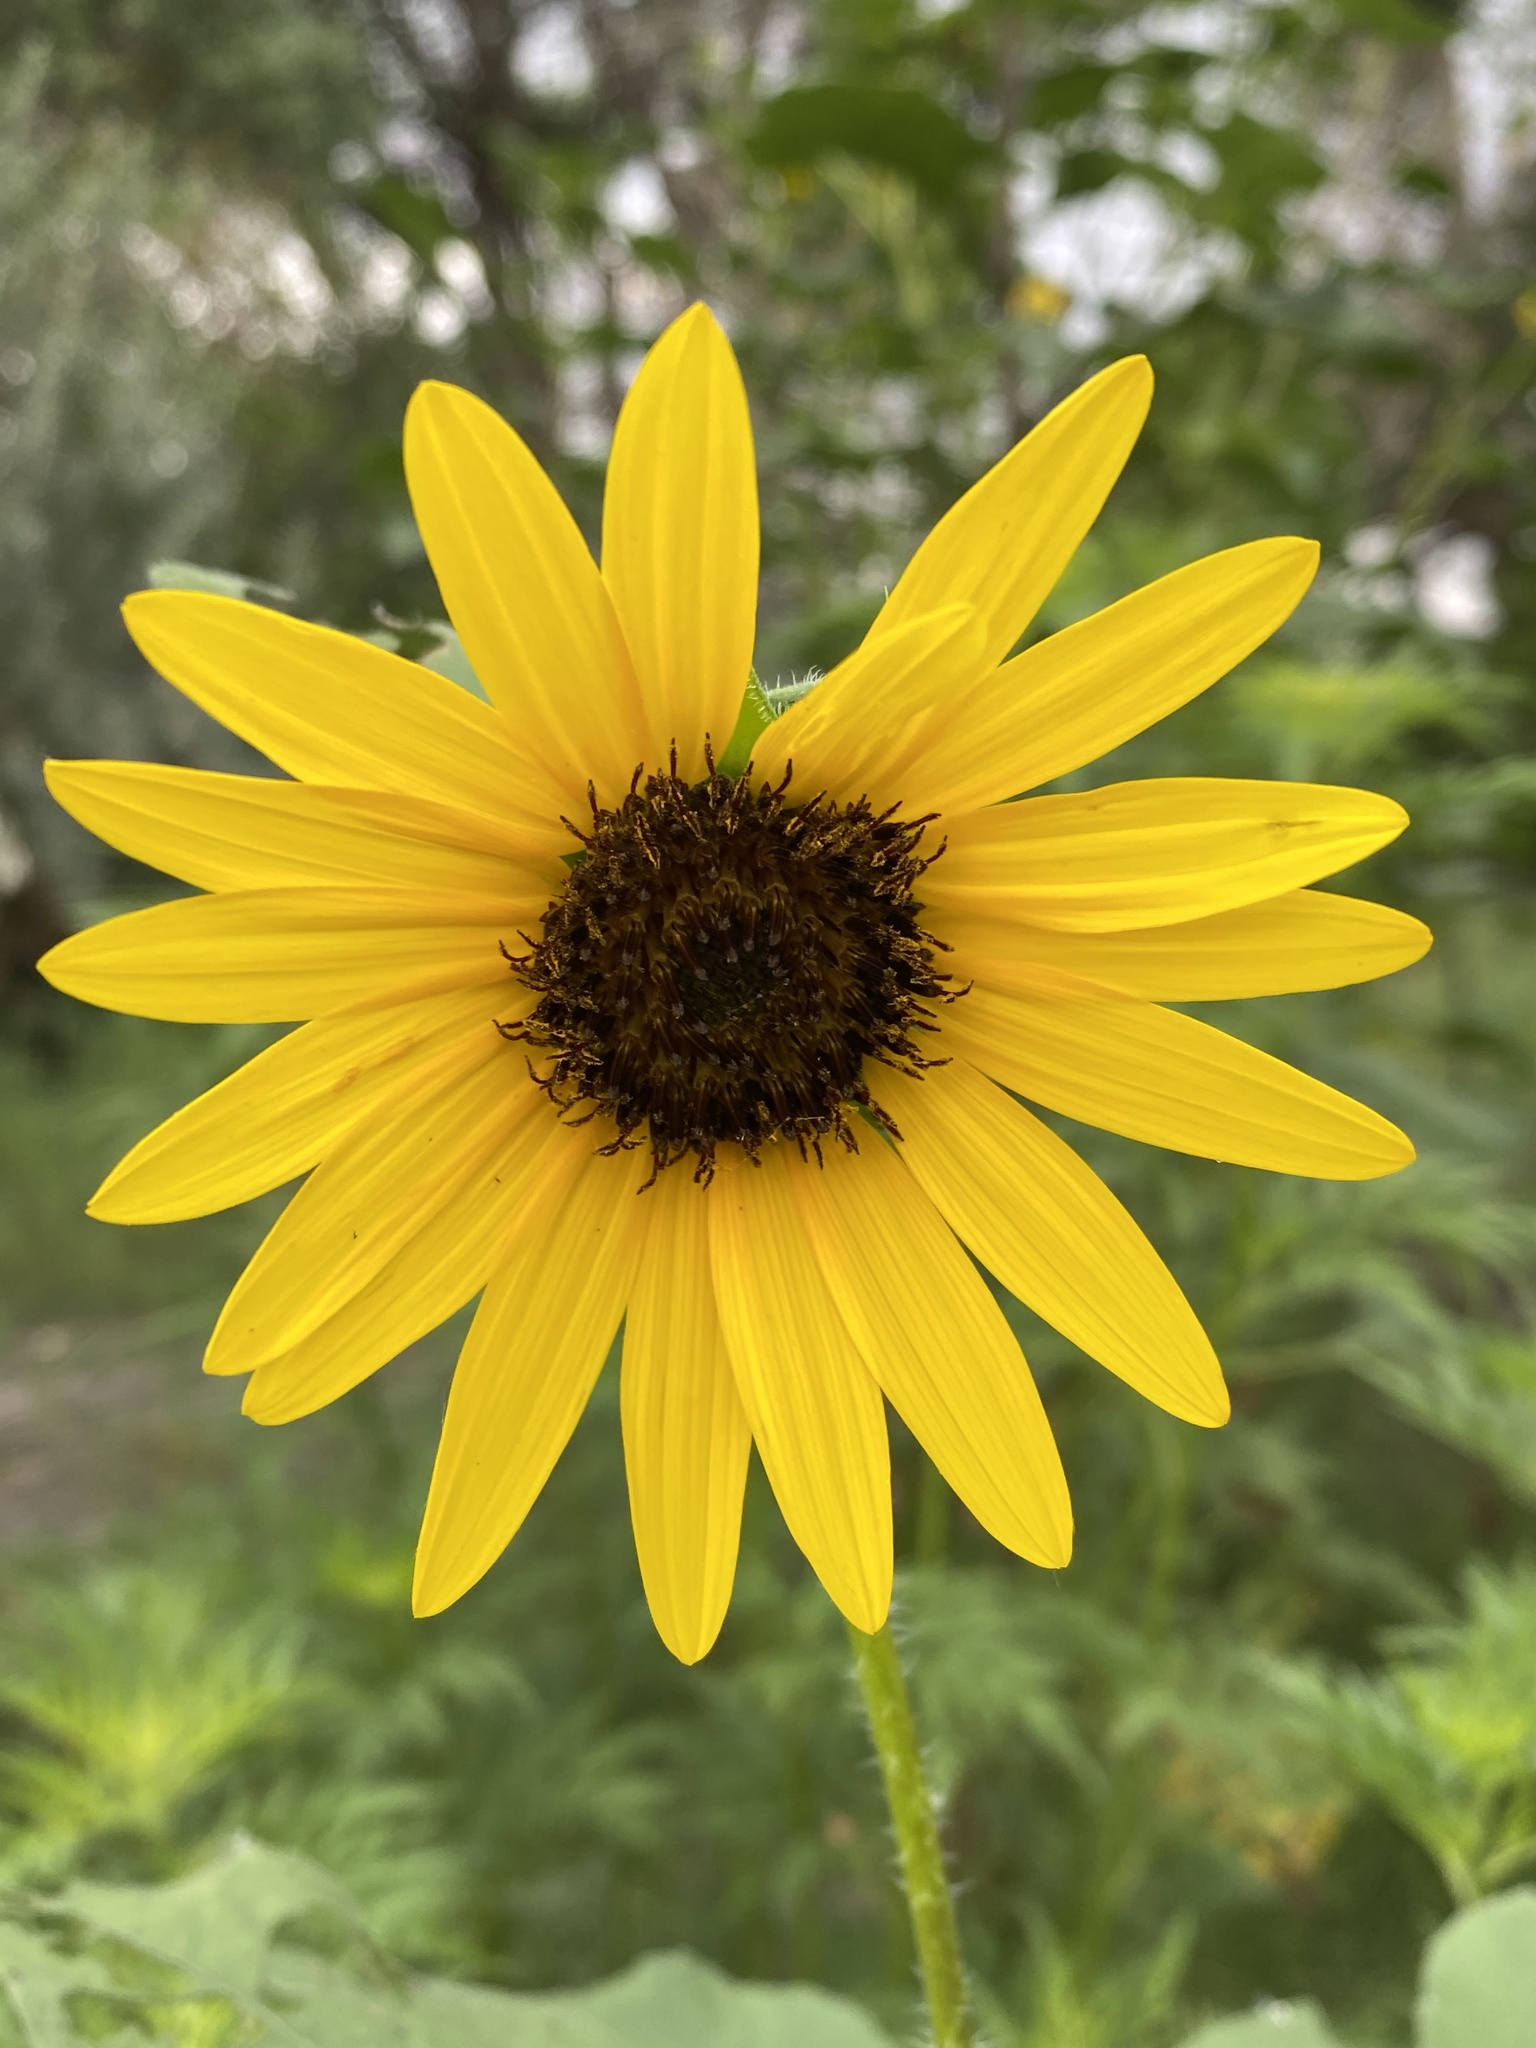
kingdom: Plantae
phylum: Tracheophyta
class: Magnoliopsida
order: Asterales
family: Asteraceae
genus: Helianthus
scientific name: Helianthus annuus
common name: Sunflower
